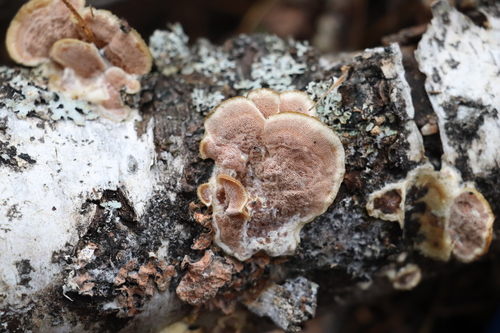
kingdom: Fungi
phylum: Basidiomycota
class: Agaricomycetes
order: Polyporales
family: Irpicaceae
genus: Vitreoporus
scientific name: Vitreoporus dichrous
